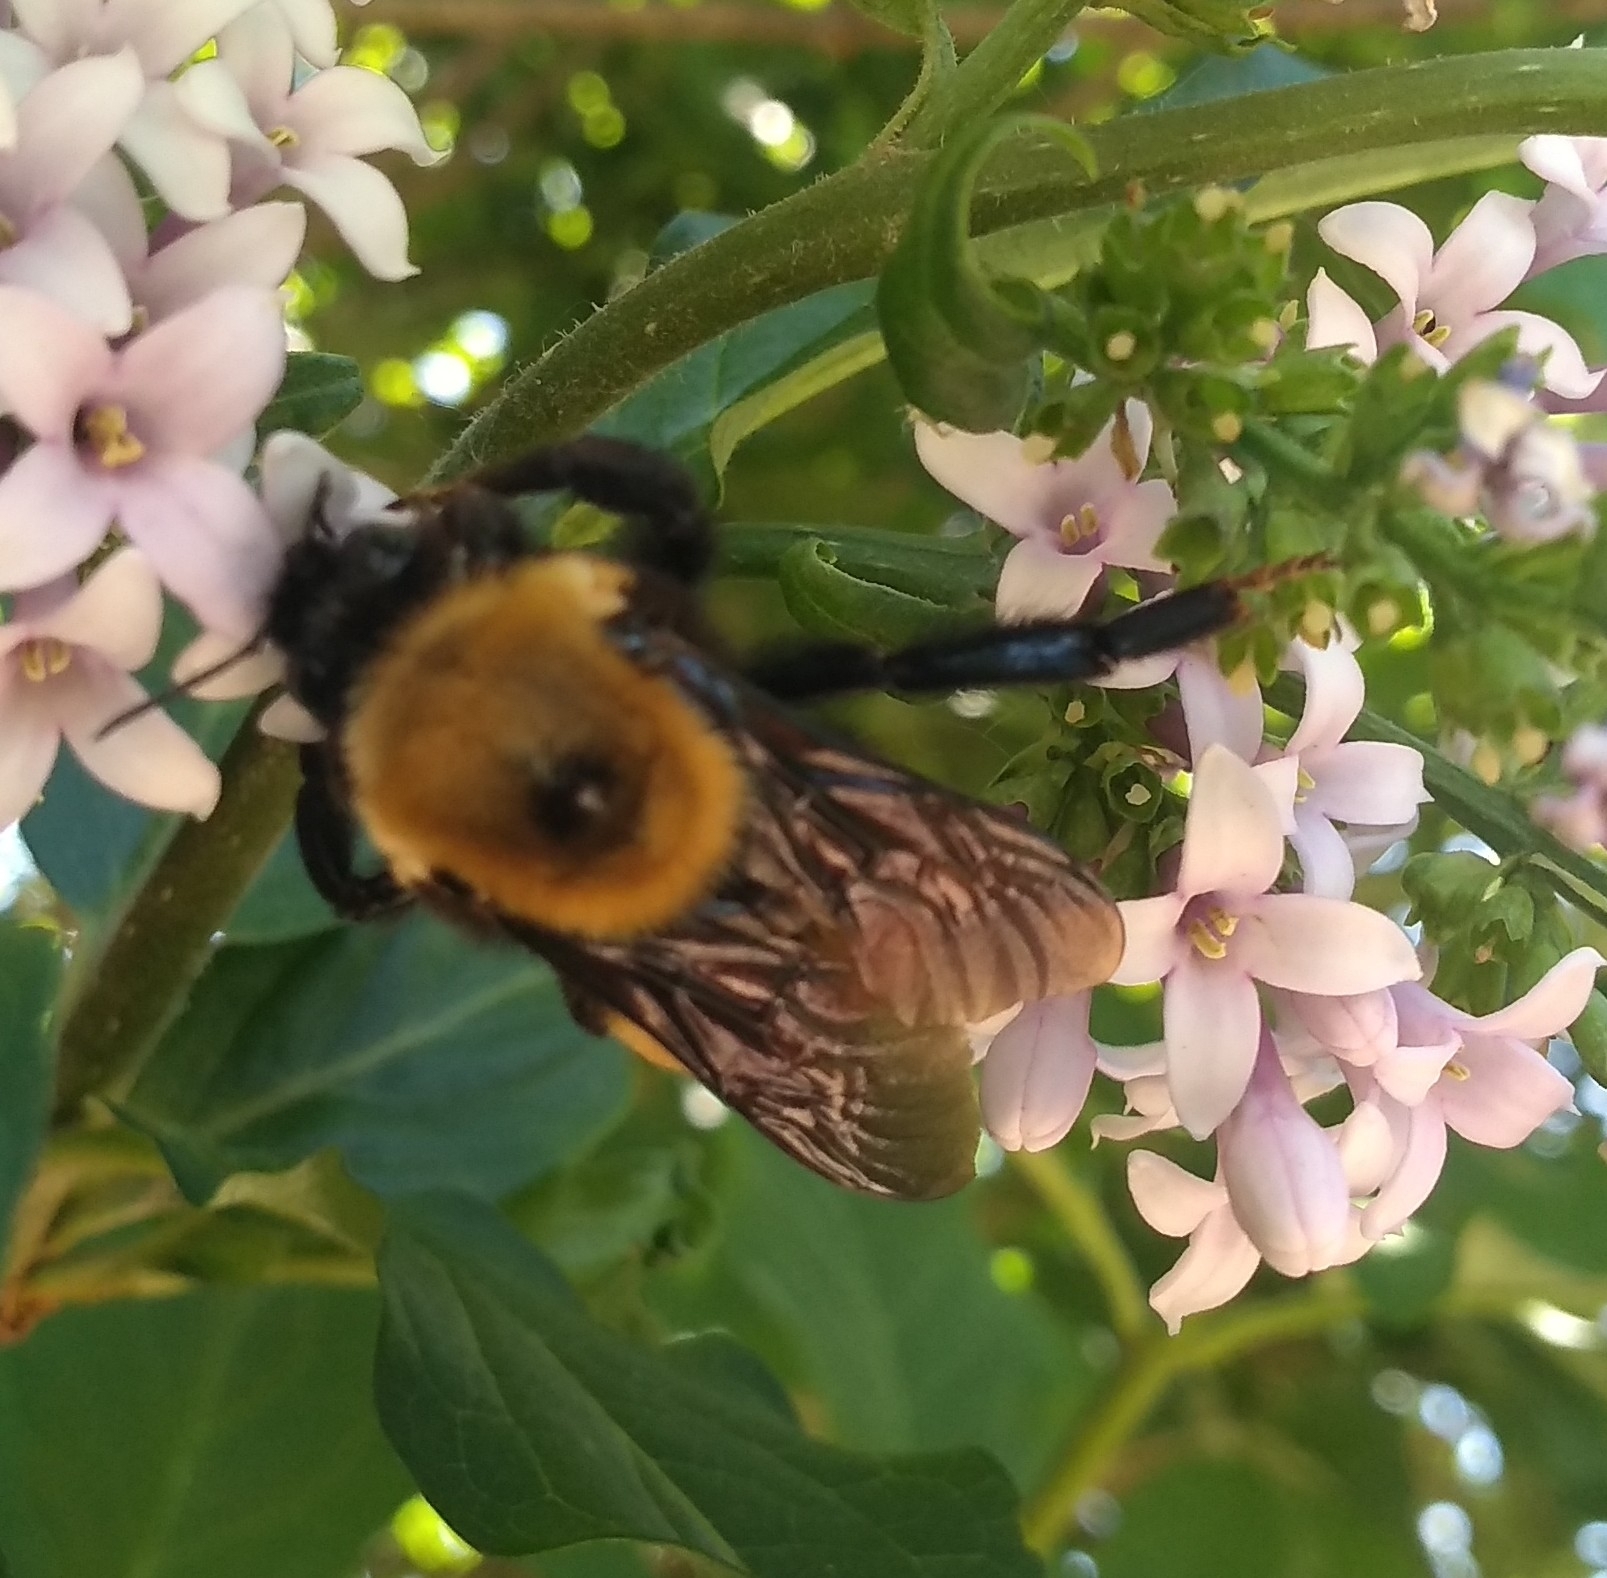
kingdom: Animalia
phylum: Arthropoda
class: Insecta
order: Hymenoptera
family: Apidae
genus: Bombus
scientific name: Bombus nevadensis
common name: Nevada bumble bee
